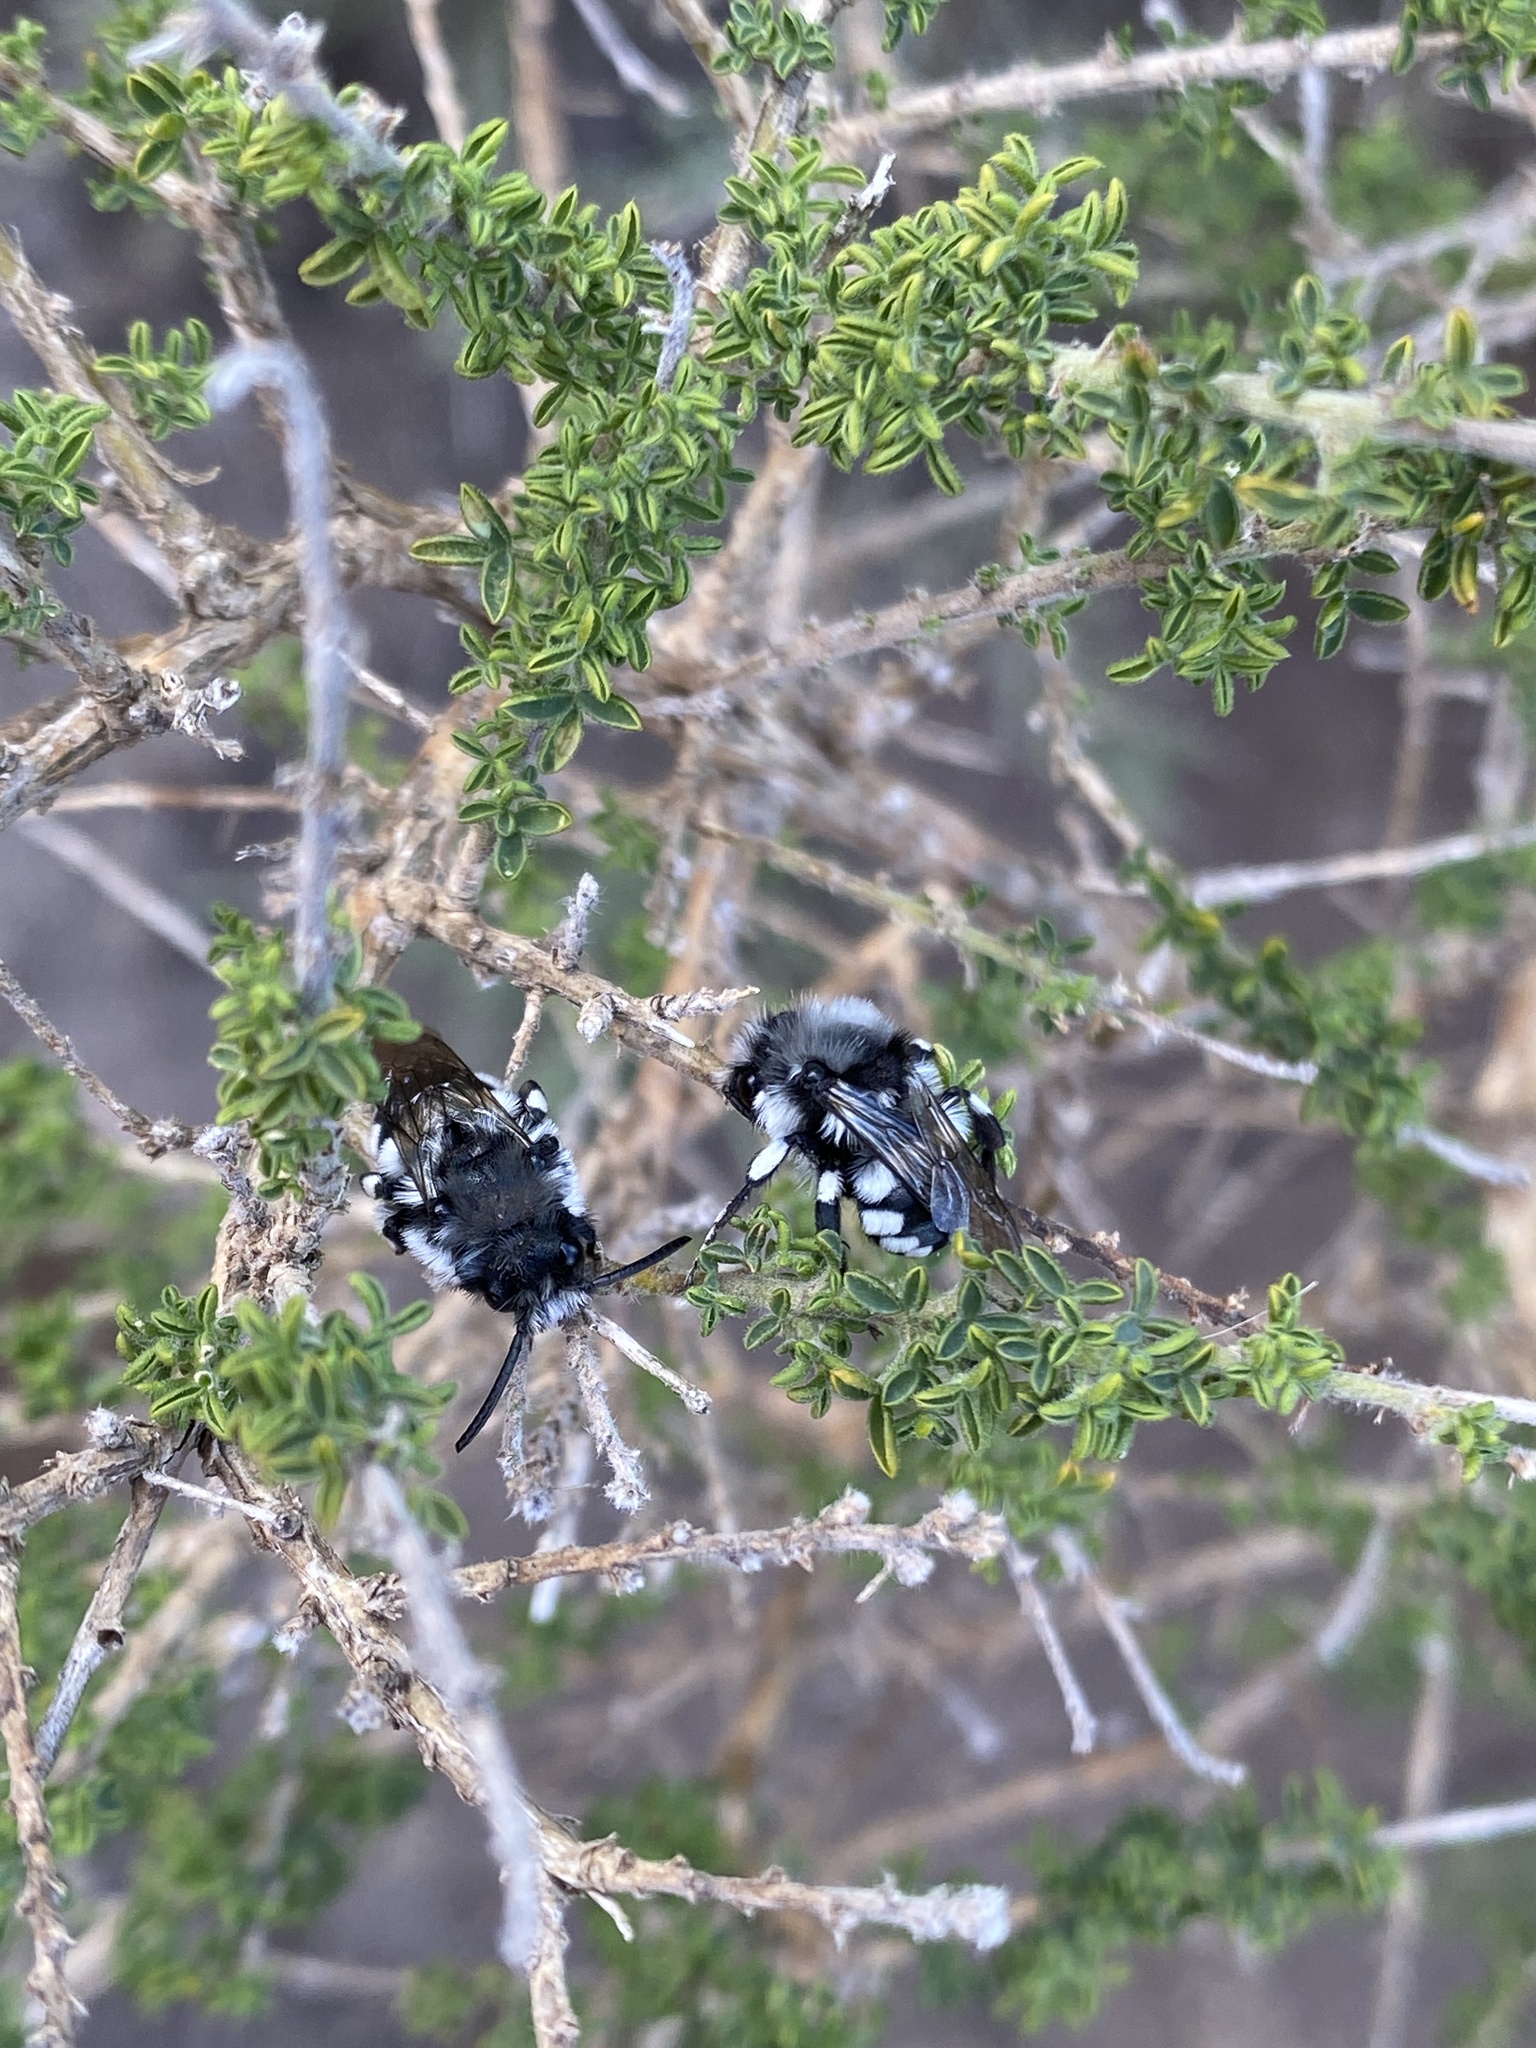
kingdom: Animalia
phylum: Arthropoda
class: Insecta
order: Hymenoptera
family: Apidae
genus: Melecta
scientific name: Melecta curvispina
